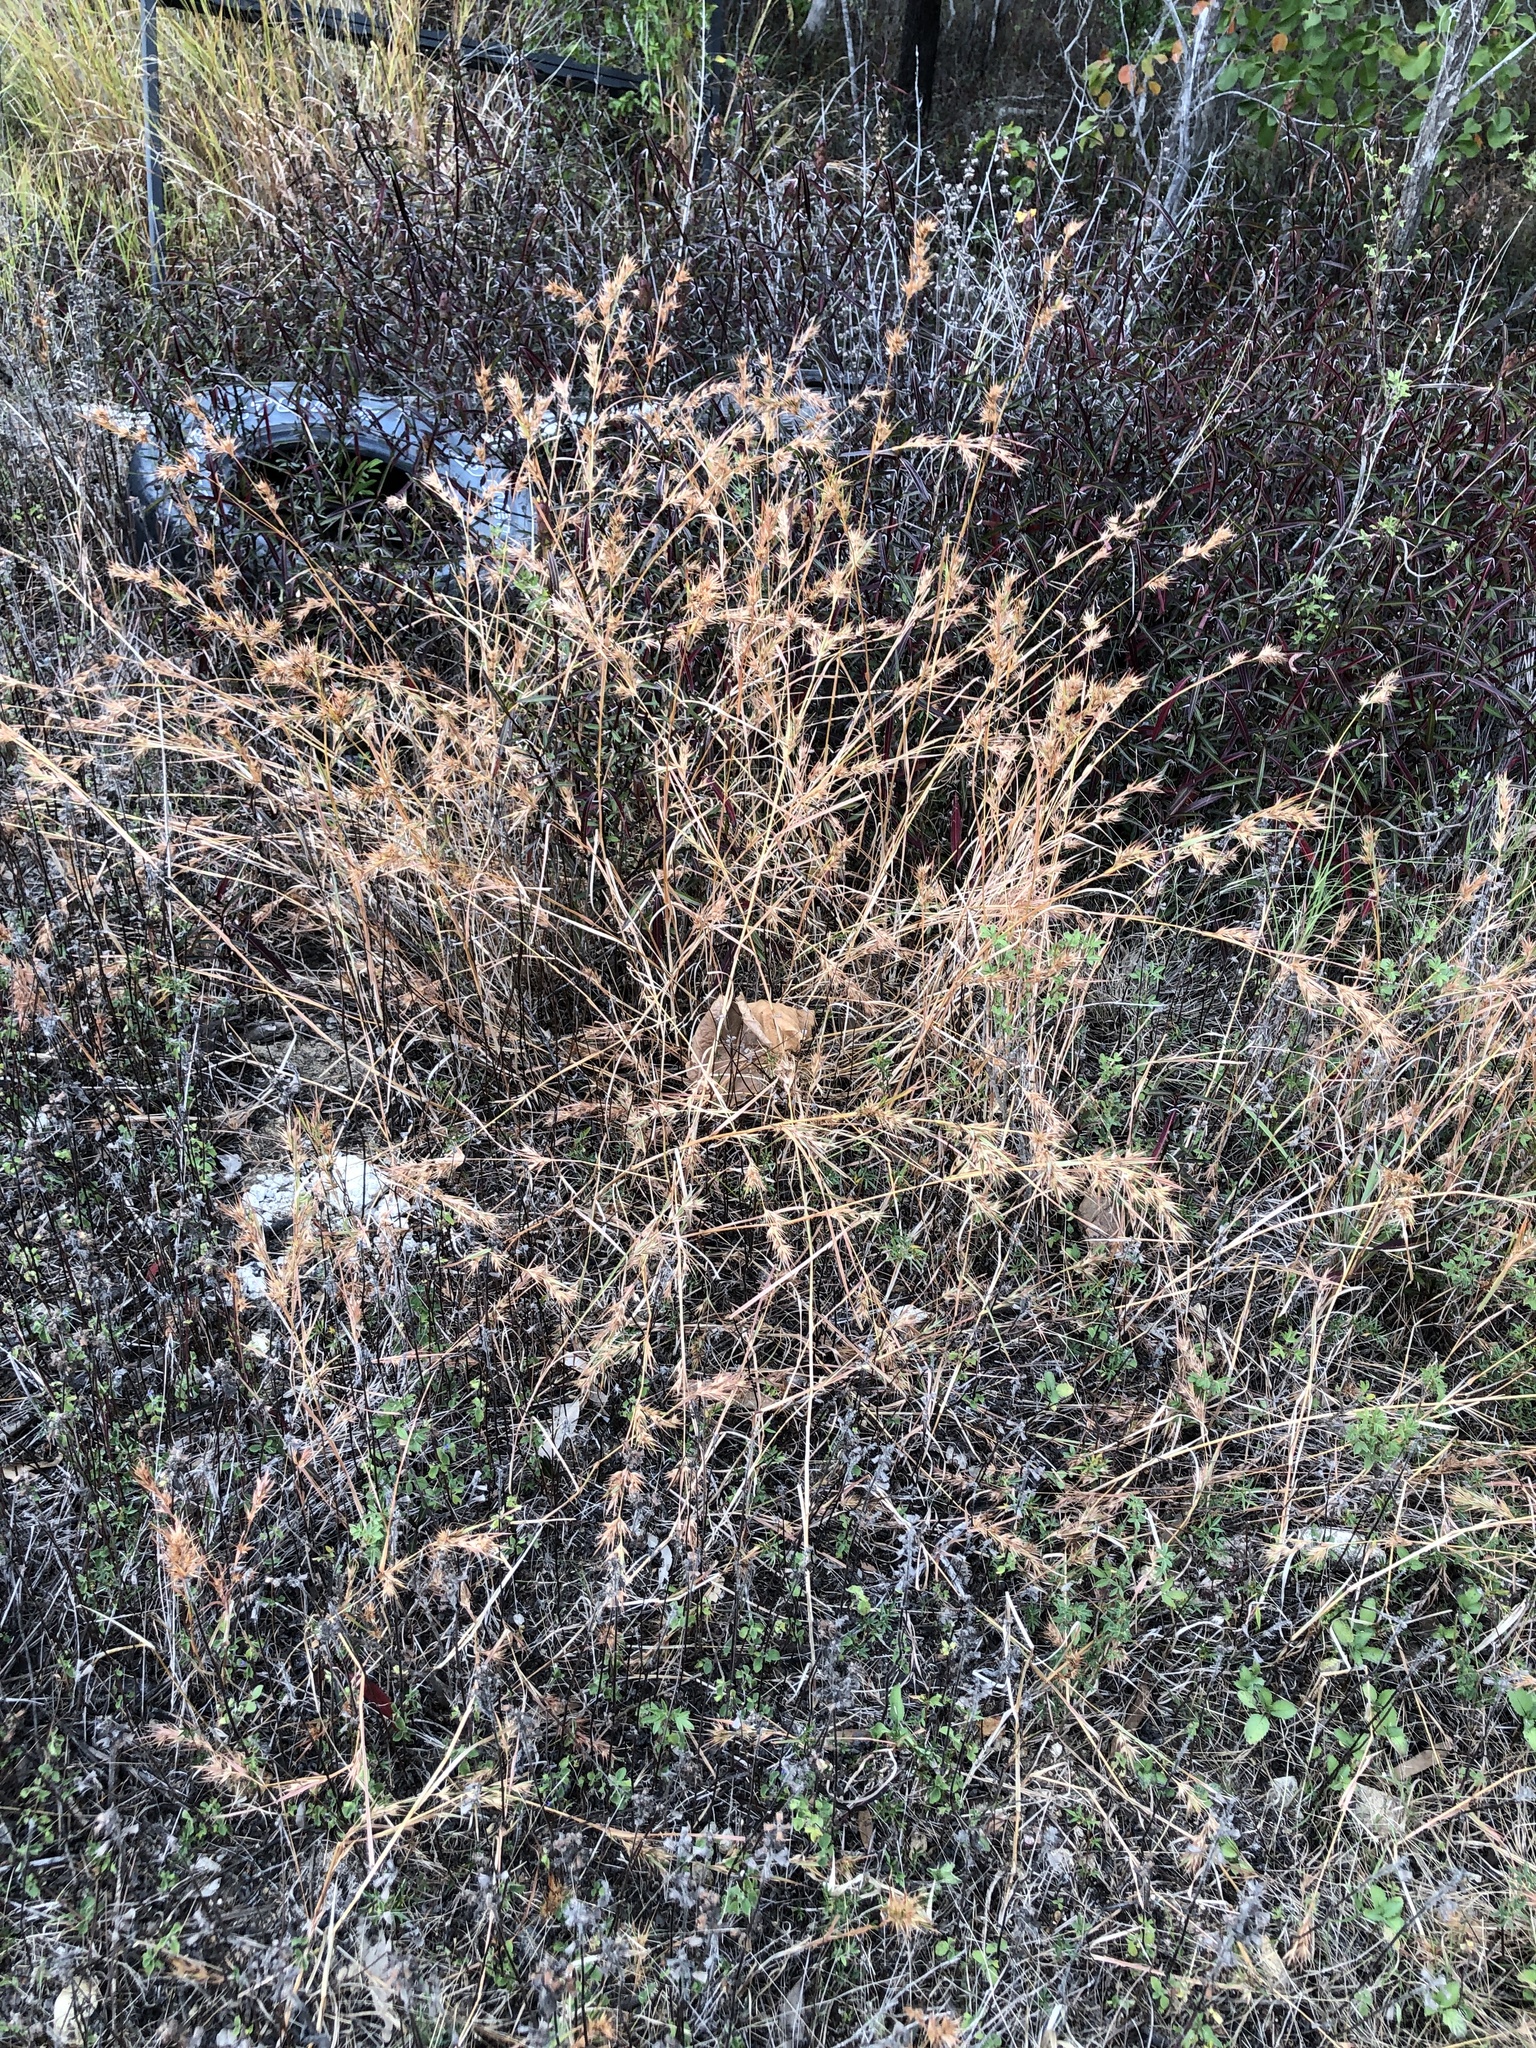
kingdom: Plantae
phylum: Tracheophyta
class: Liliopsida
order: Poales
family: Poaceae
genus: Themeda
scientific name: Themeda quadrivalvis
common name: Kangaroo grass
